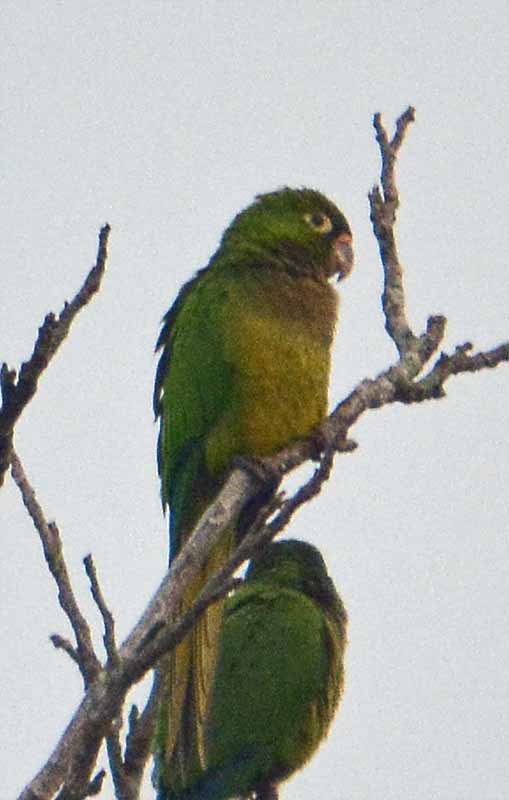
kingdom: Animalia
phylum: Chordata
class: Aves
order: Psittaciformes
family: Psittacidae
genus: Aratinga
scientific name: Aratinga nana
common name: Olive-throated parakeet
